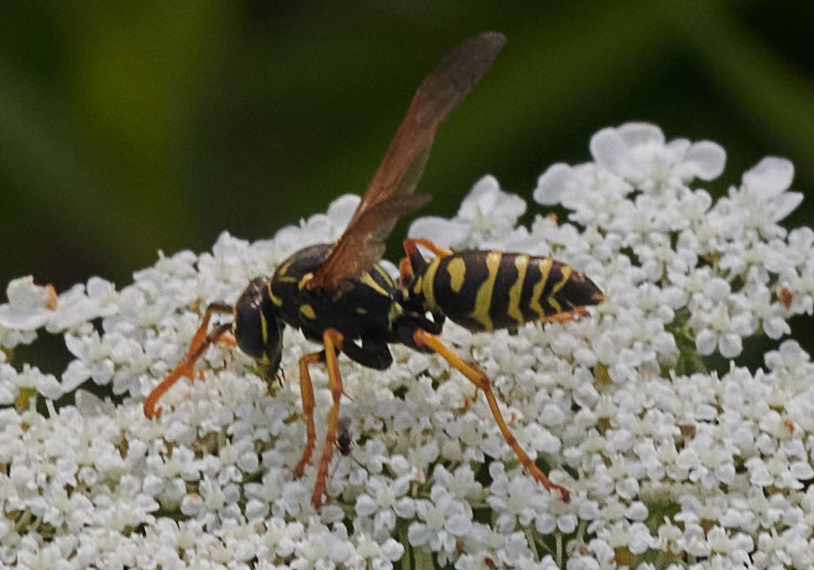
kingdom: Animalia
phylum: Arthropoda
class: Insecta
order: Hymenoptera
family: Eumenidae
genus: Polistes
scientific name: Polistes dominula
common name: Paper wasp
